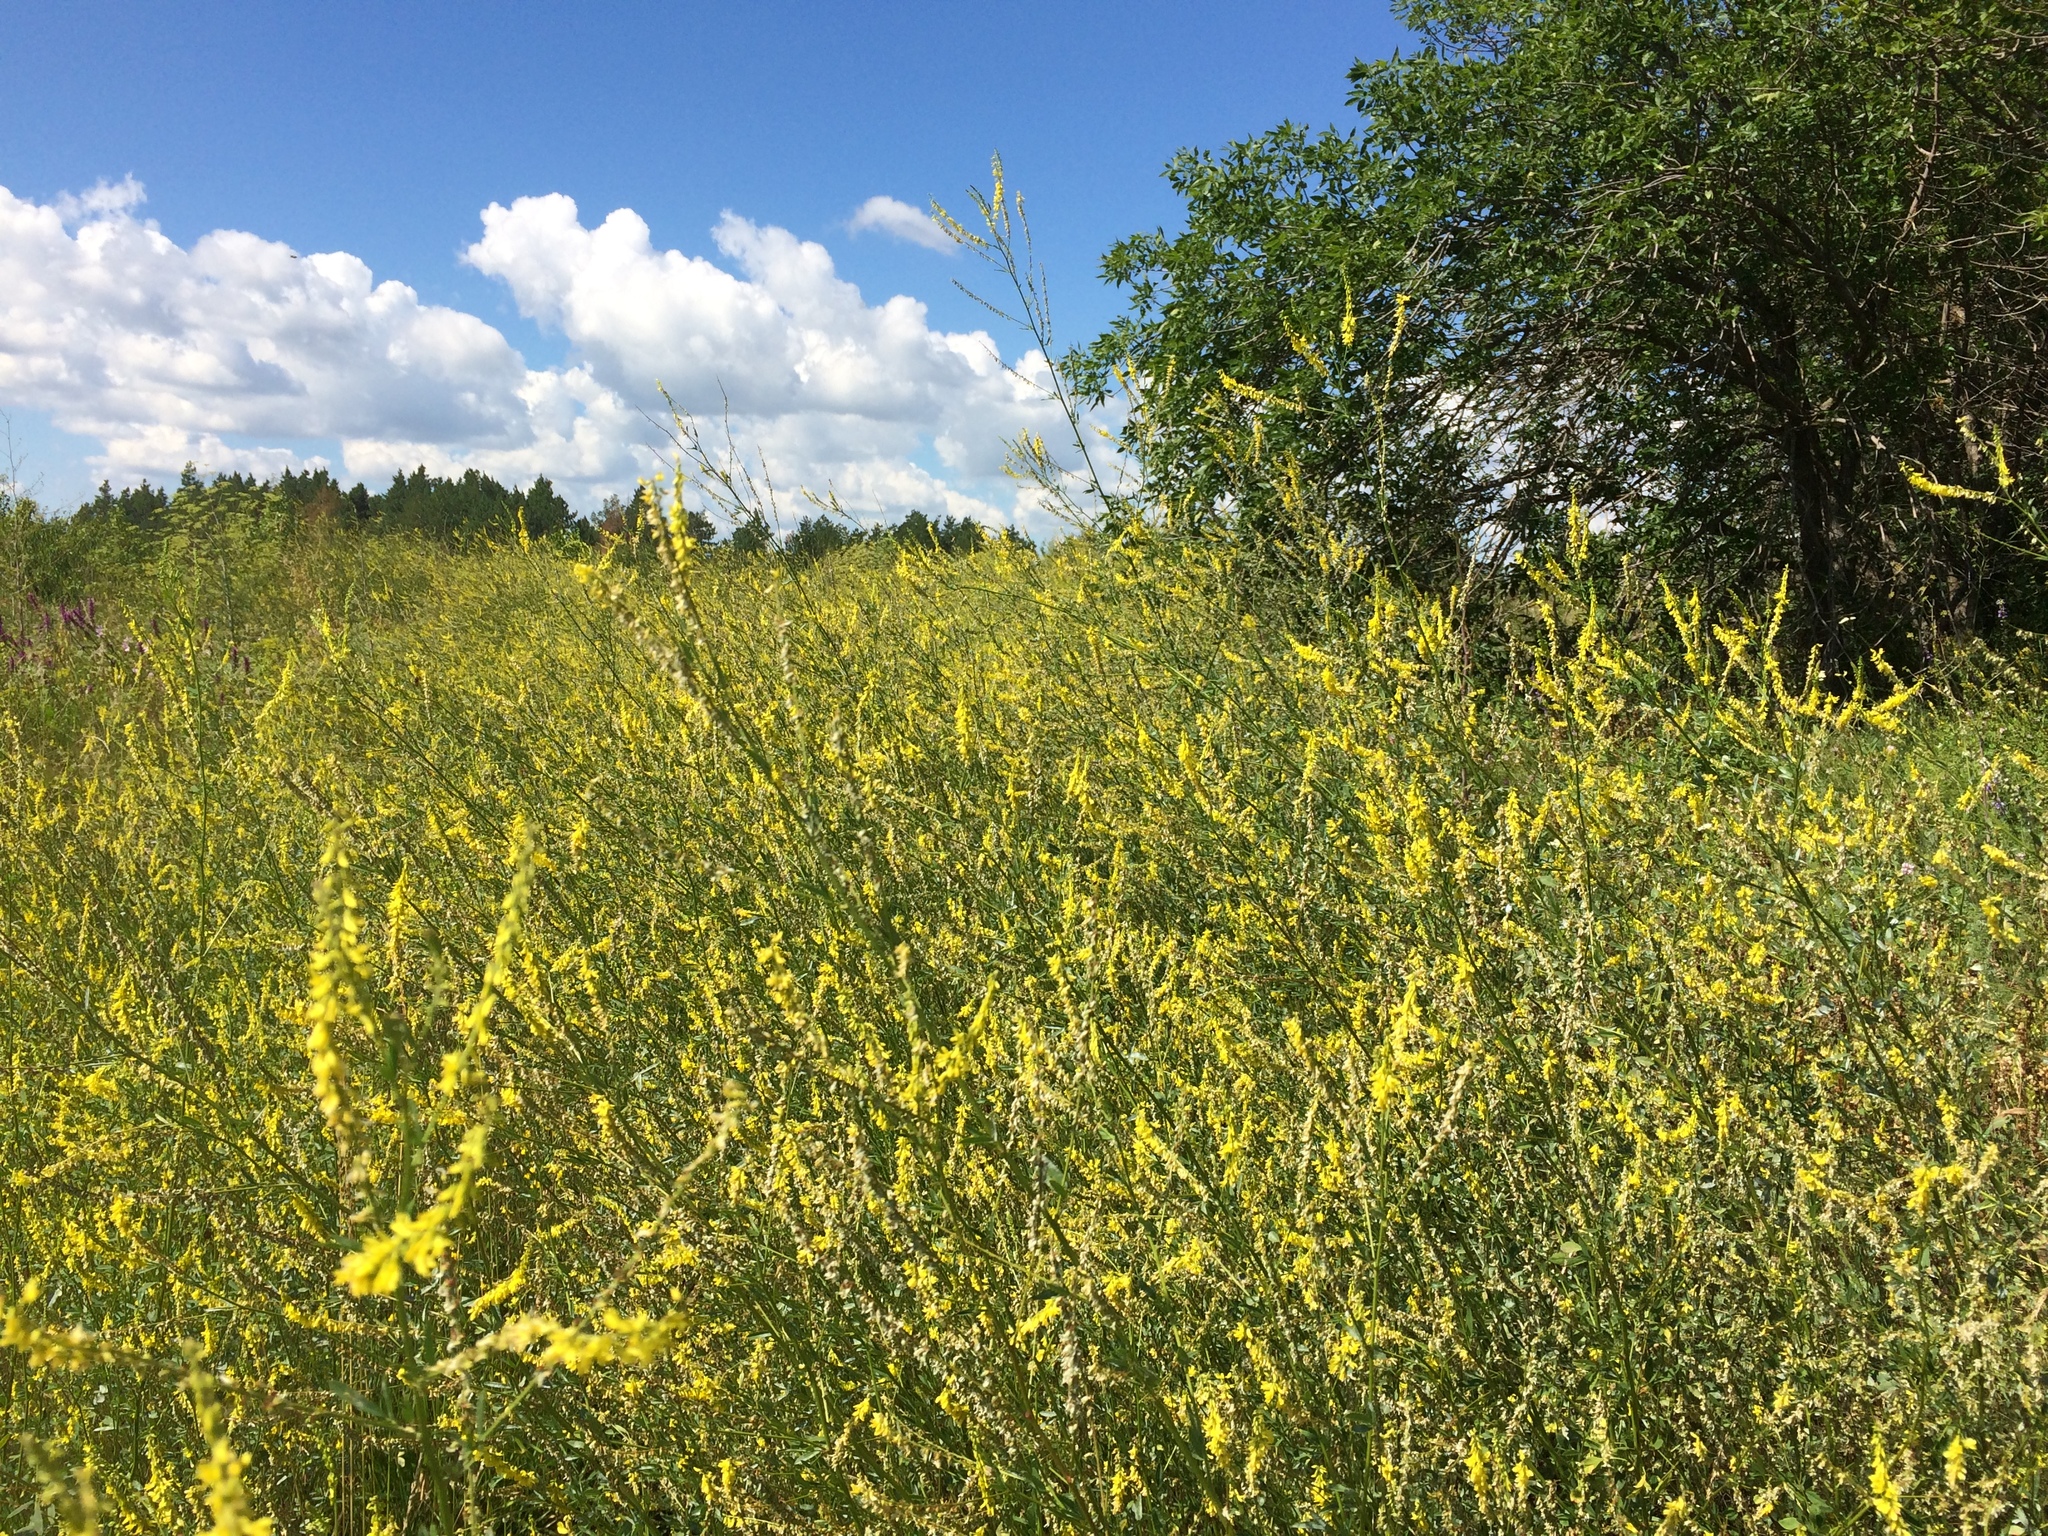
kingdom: Plantae
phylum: Tracheophyta
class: Magnoliopsida
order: Fabales
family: Fabaceae
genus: Melilotus
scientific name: Melilotus officinalis
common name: Sweetclover
